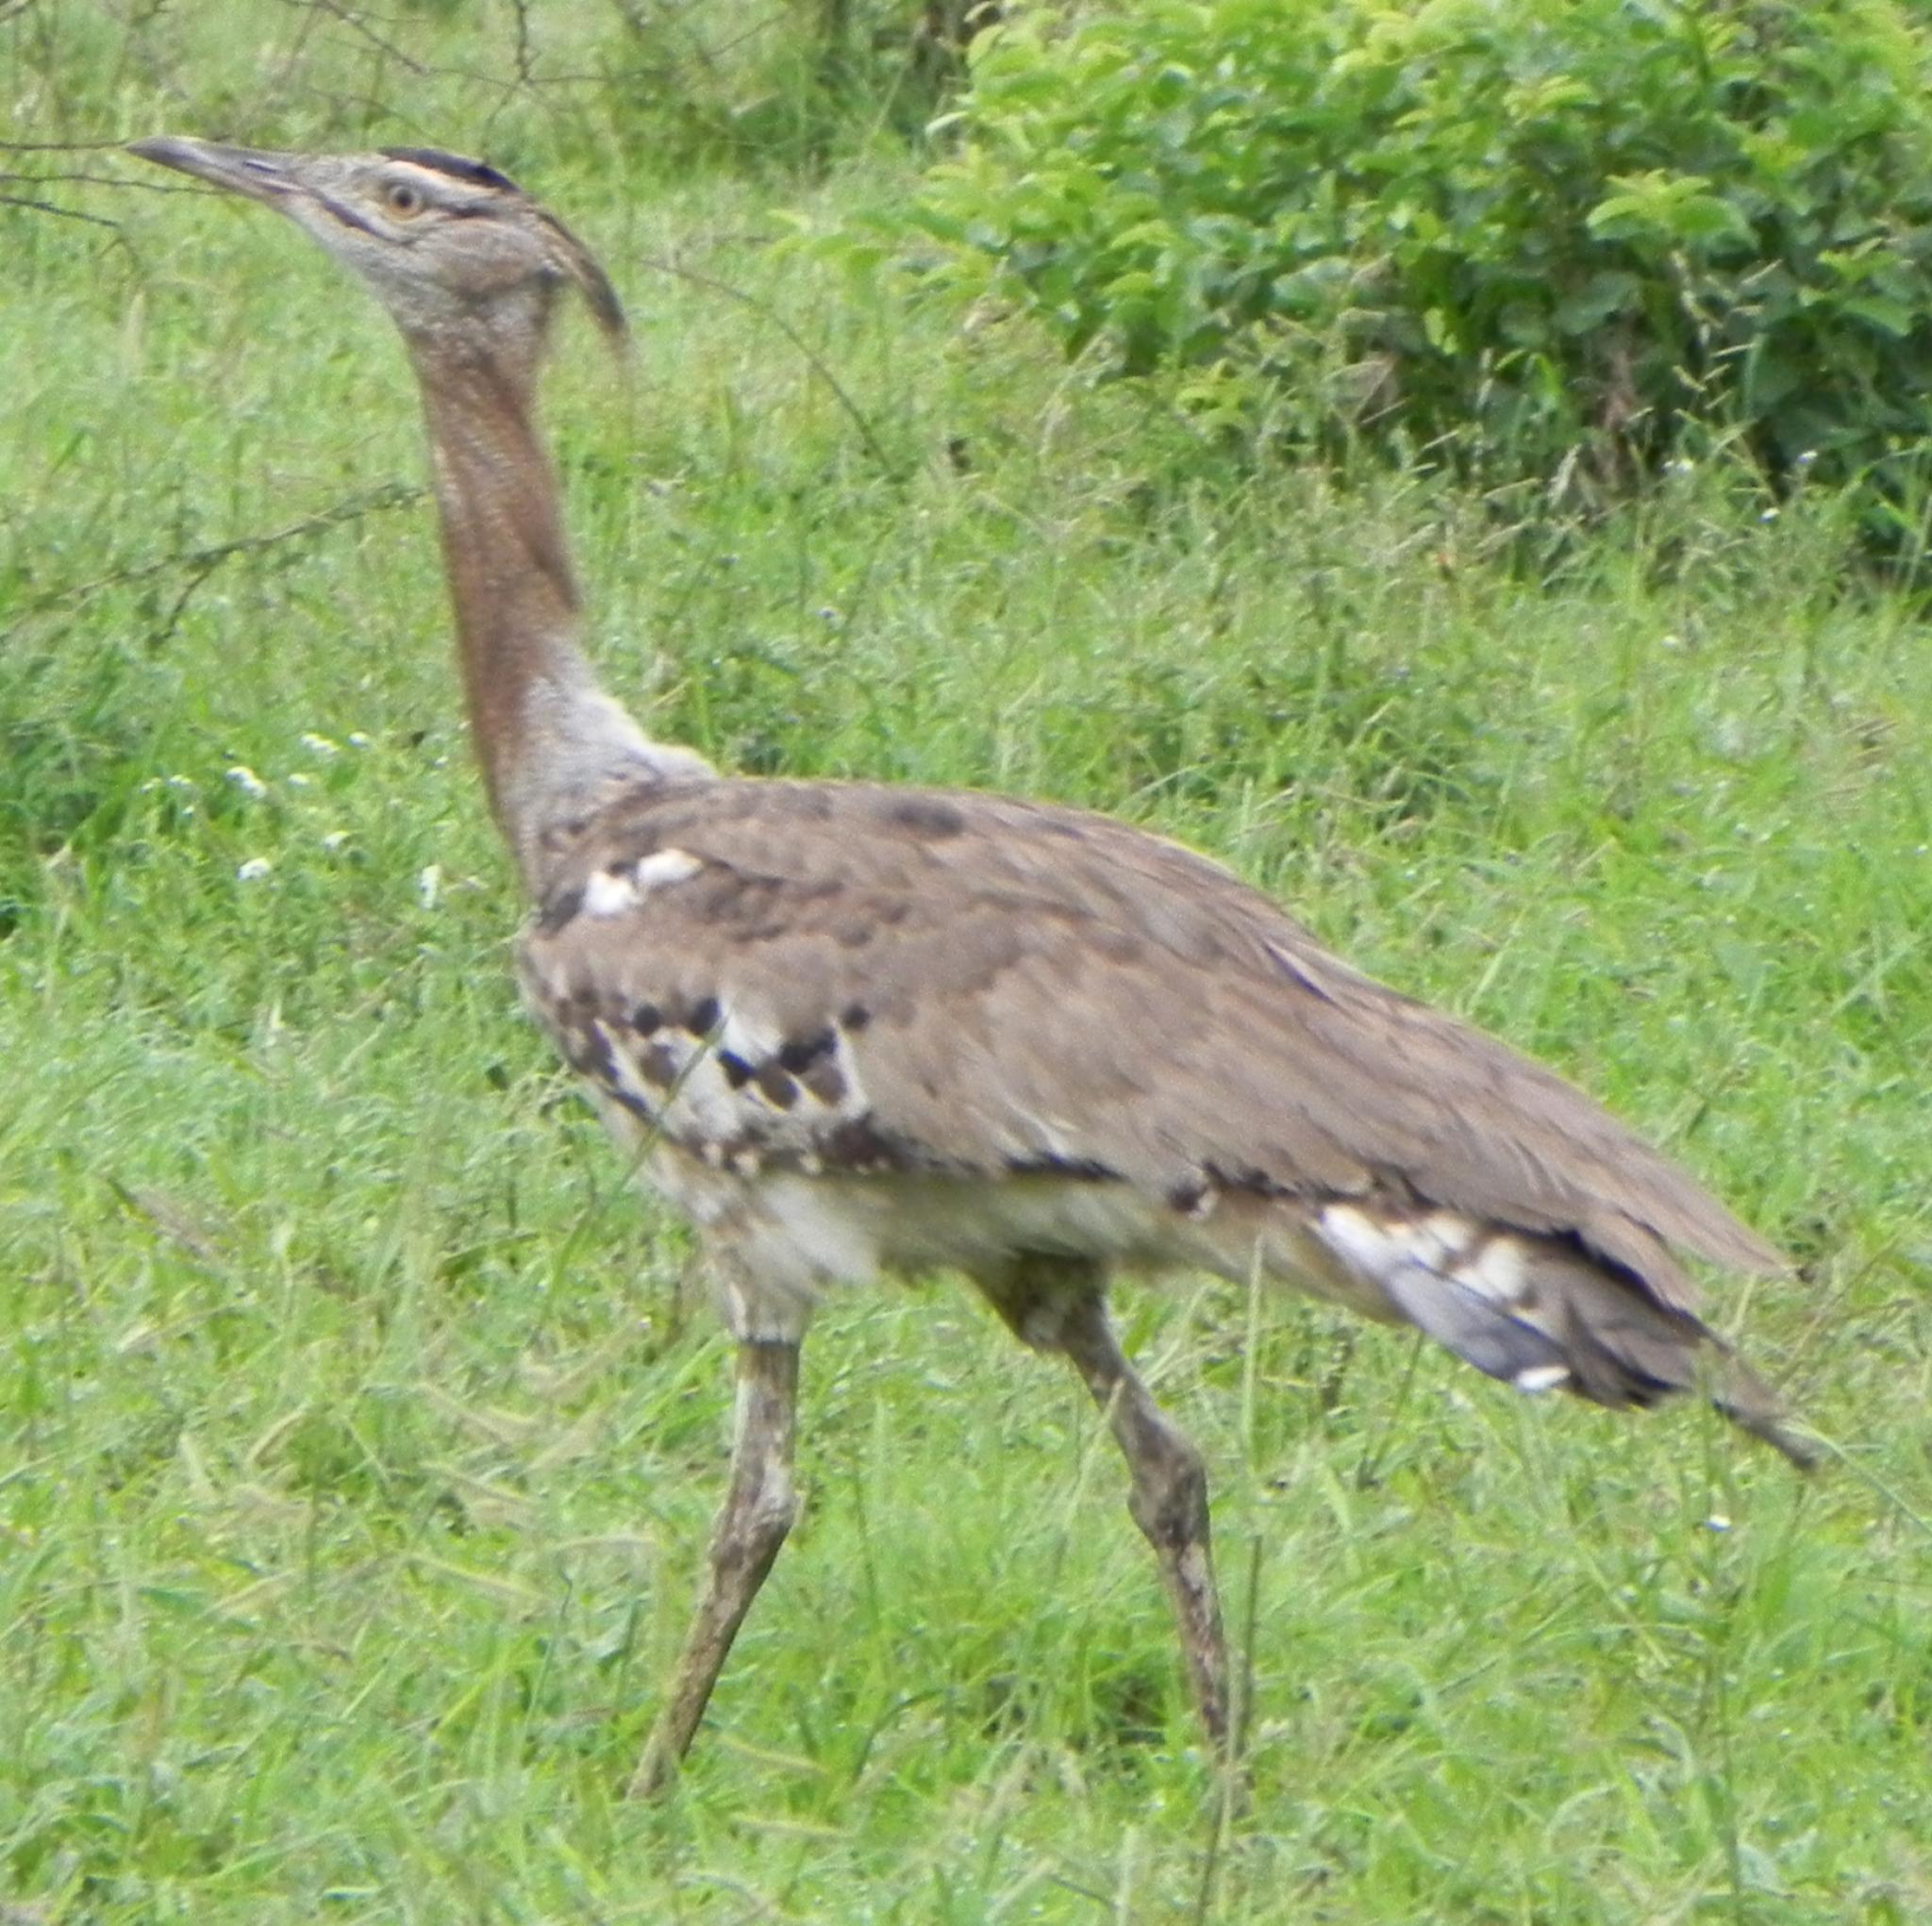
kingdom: Animalia
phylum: Chordata
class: Aves
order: Otidiformes
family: Otididae
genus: Ardeotis
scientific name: Ardeotis kori
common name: Kori bustard
